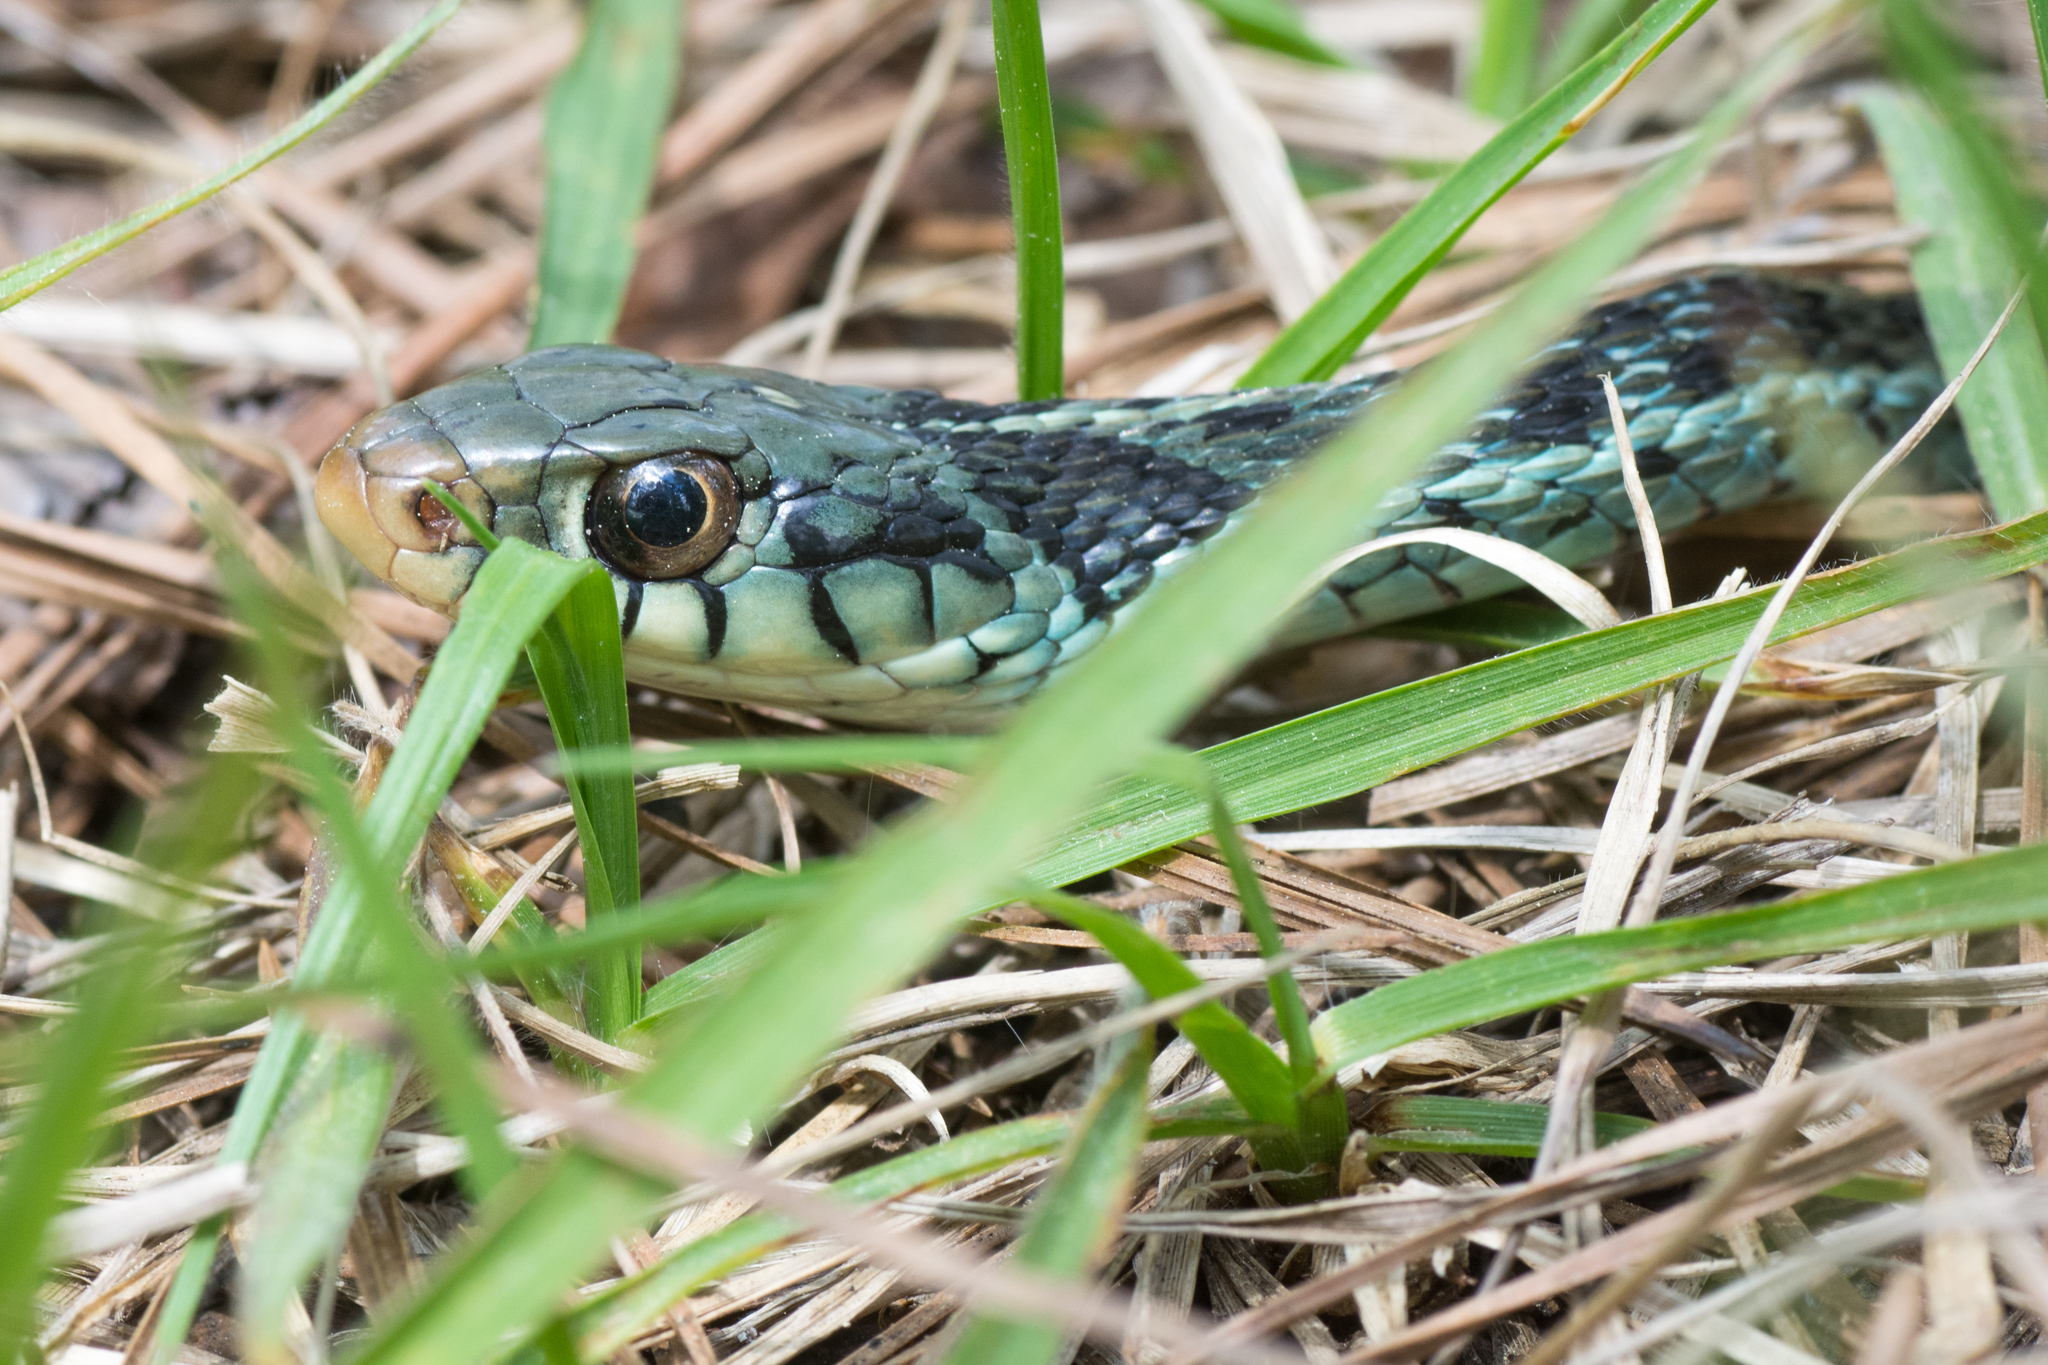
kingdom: Animalia
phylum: Chordata
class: Squamata
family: Colubridae
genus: Thamnophis
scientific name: Thamnophis sirtalis
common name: Common garter snake
